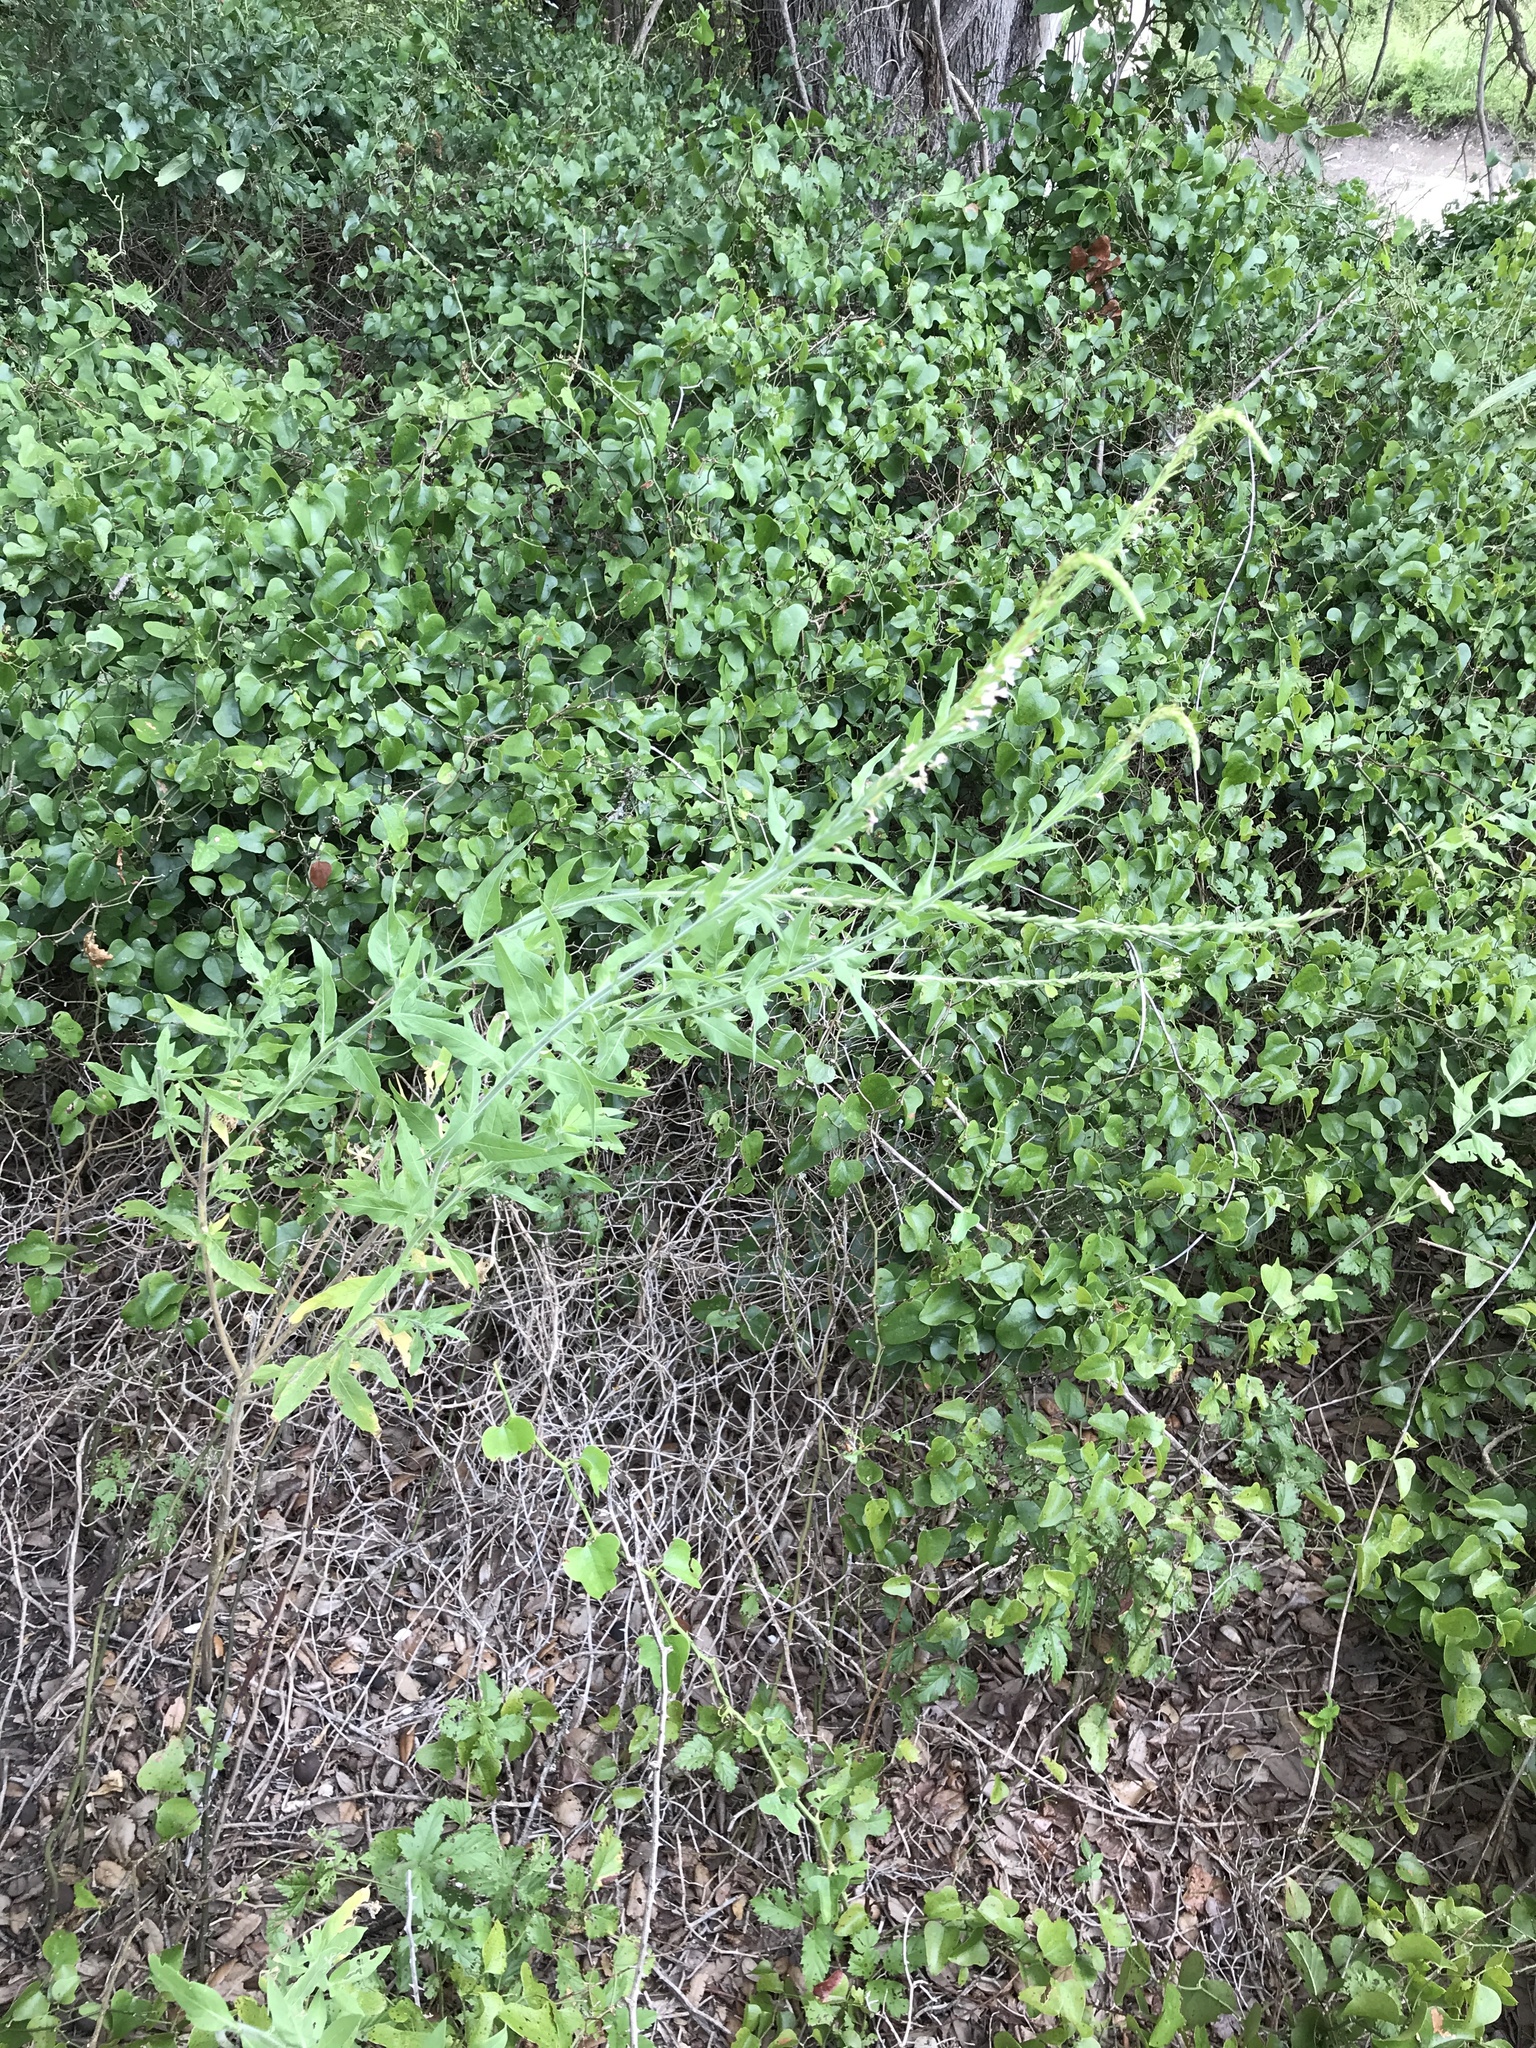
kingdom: Plantae
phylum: Tracheophyta
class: Magnoliopsida
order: Myrtales
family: Onagraceae
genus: Oenothera
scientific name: Oenothera curtiflora
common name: Velvetweed
